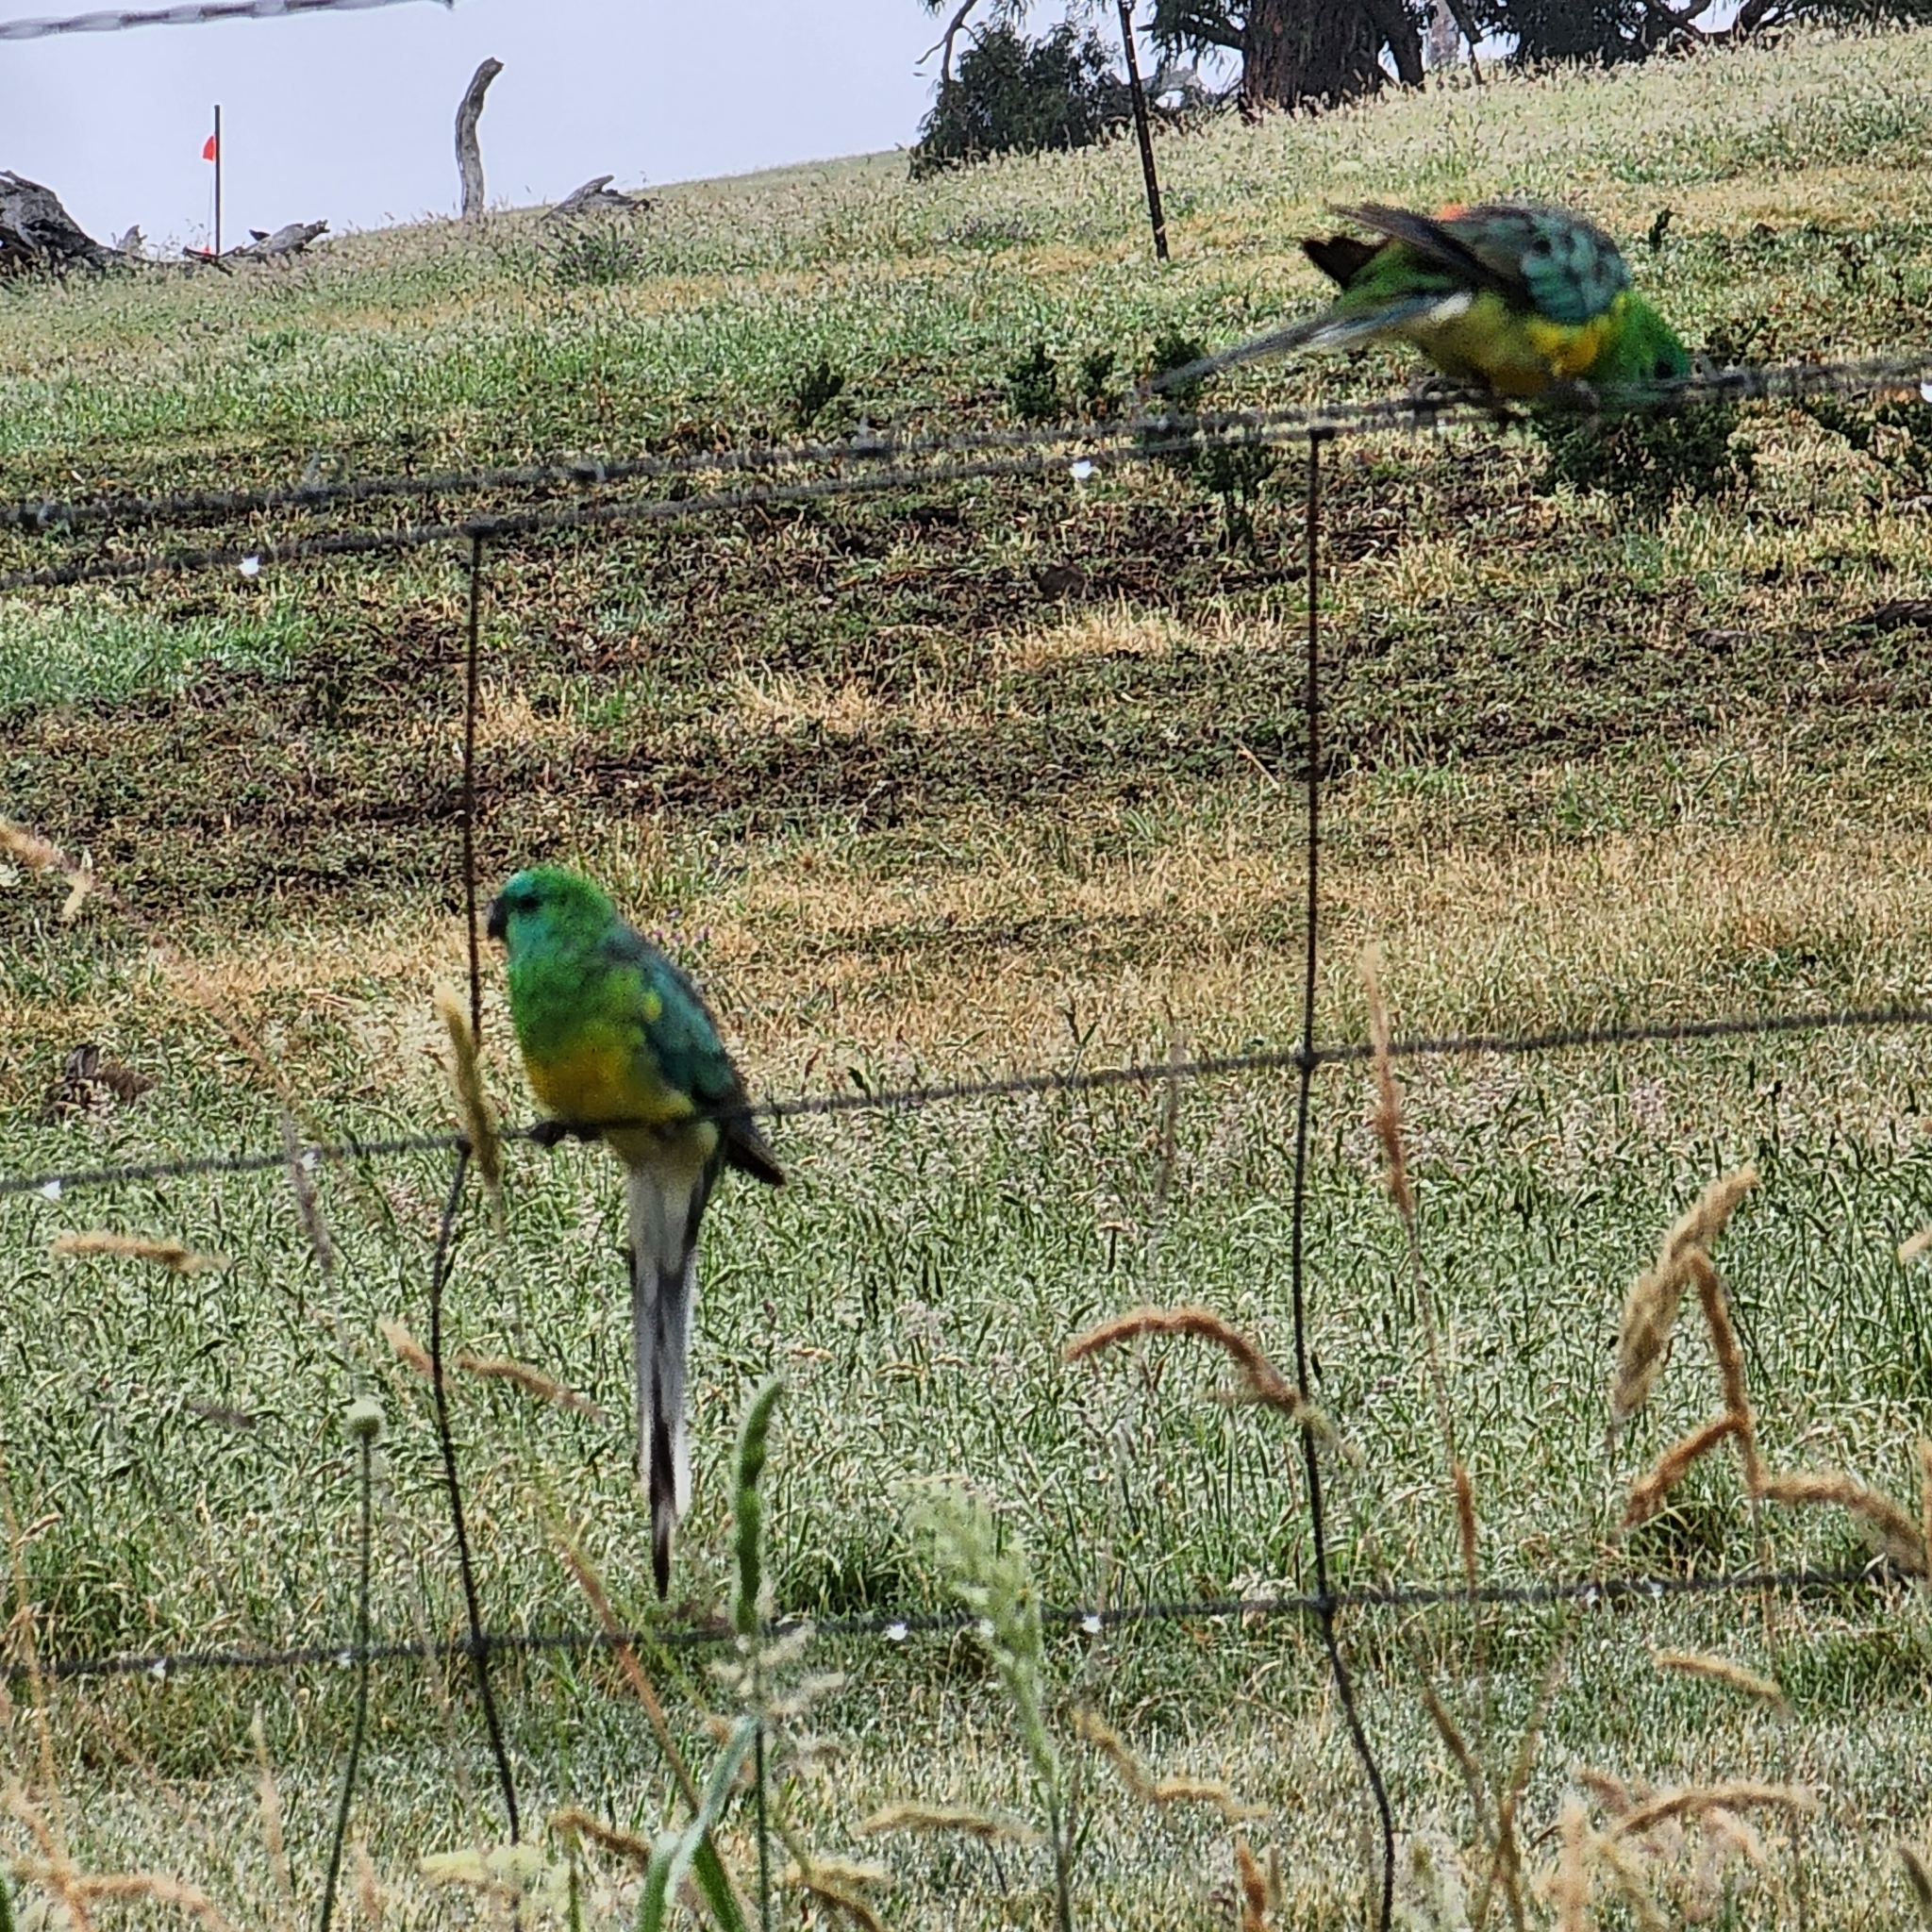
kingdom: Animalia
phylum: Chordata
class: Aves
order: Psittaciformes
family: Psittacidae
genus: Psephotus
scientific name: Psephotus haematonotus
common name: Red-rumped parrot
